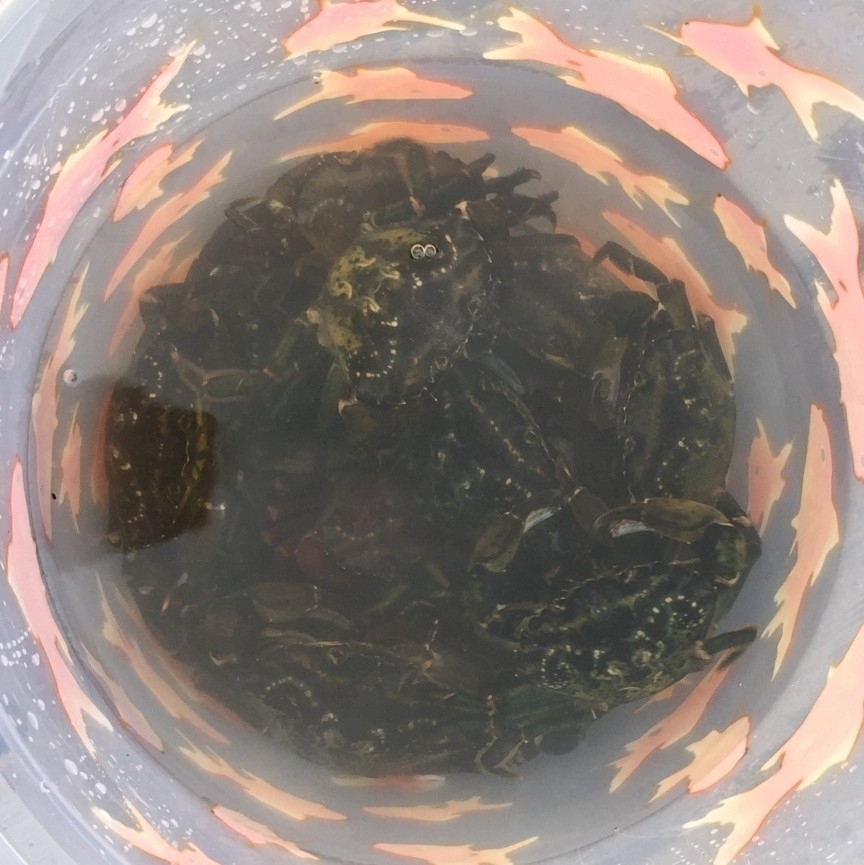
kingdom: Animalia
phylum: Arthropoda
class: Malacostraca
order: Decapoda
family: Carcinidae
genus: Carcinus
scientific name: Carcinus maenas
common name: European green crab
